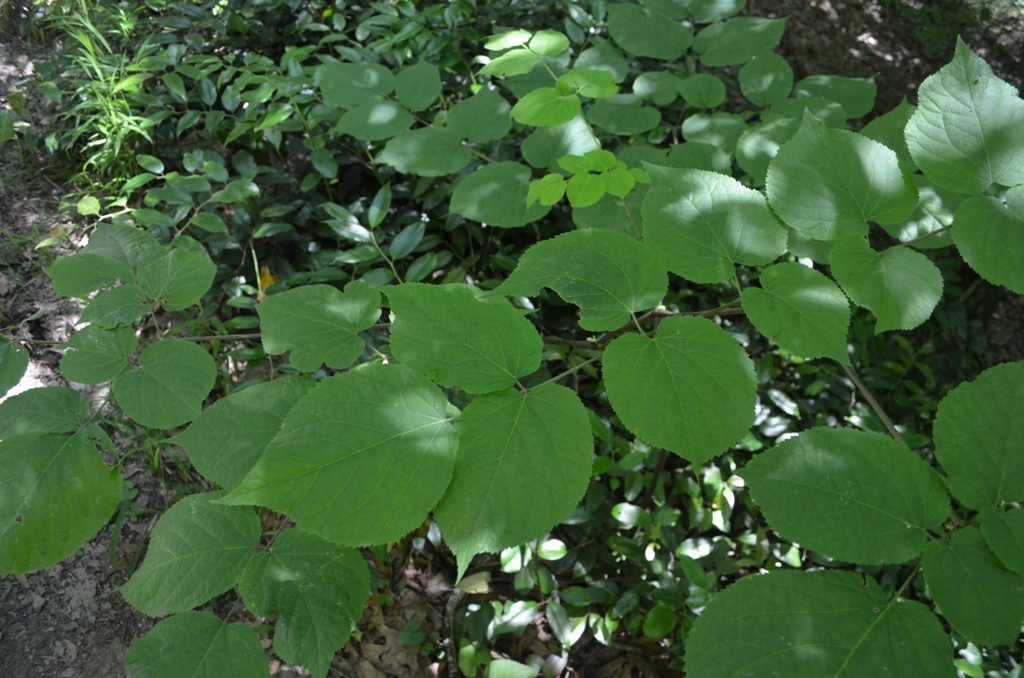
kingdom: Plantae
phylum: Tracheophyta
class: Magnoliopsida
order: Apiales
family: Araliaceae
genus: Aralia
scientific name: Aralia racemosa
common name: American-spikenard
